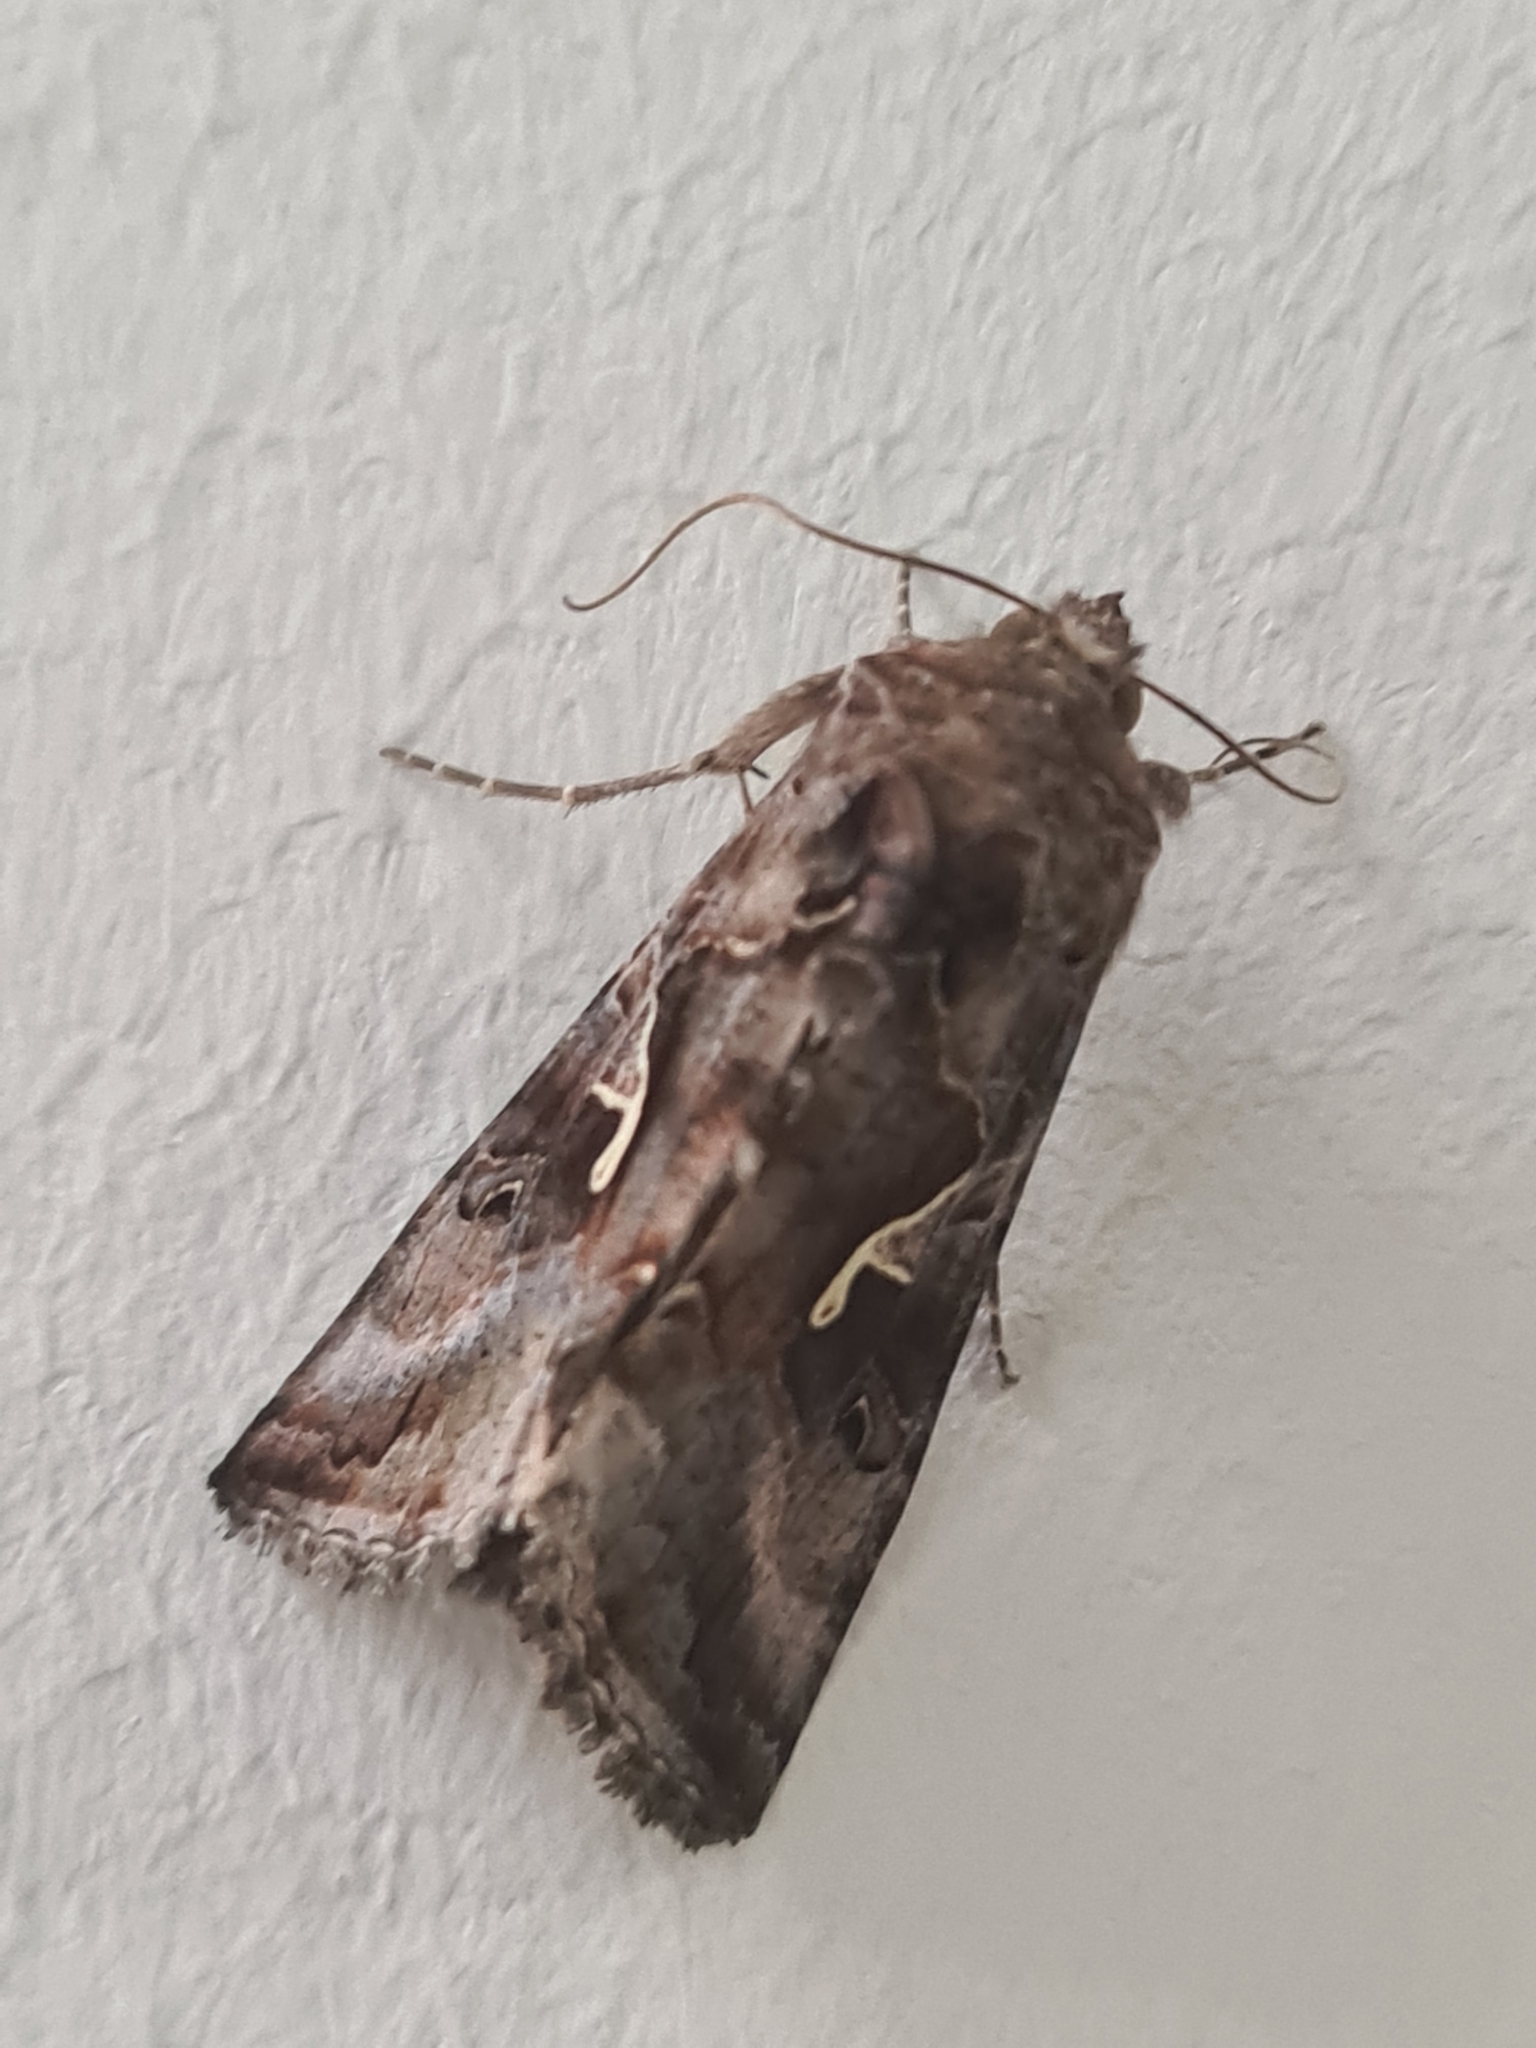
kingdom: Animalia
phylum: Arthropoda
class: Insecta
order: Lepidoptera
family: Noctuidae
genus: Autographa
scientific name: Autographa gamma
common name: Silver y
